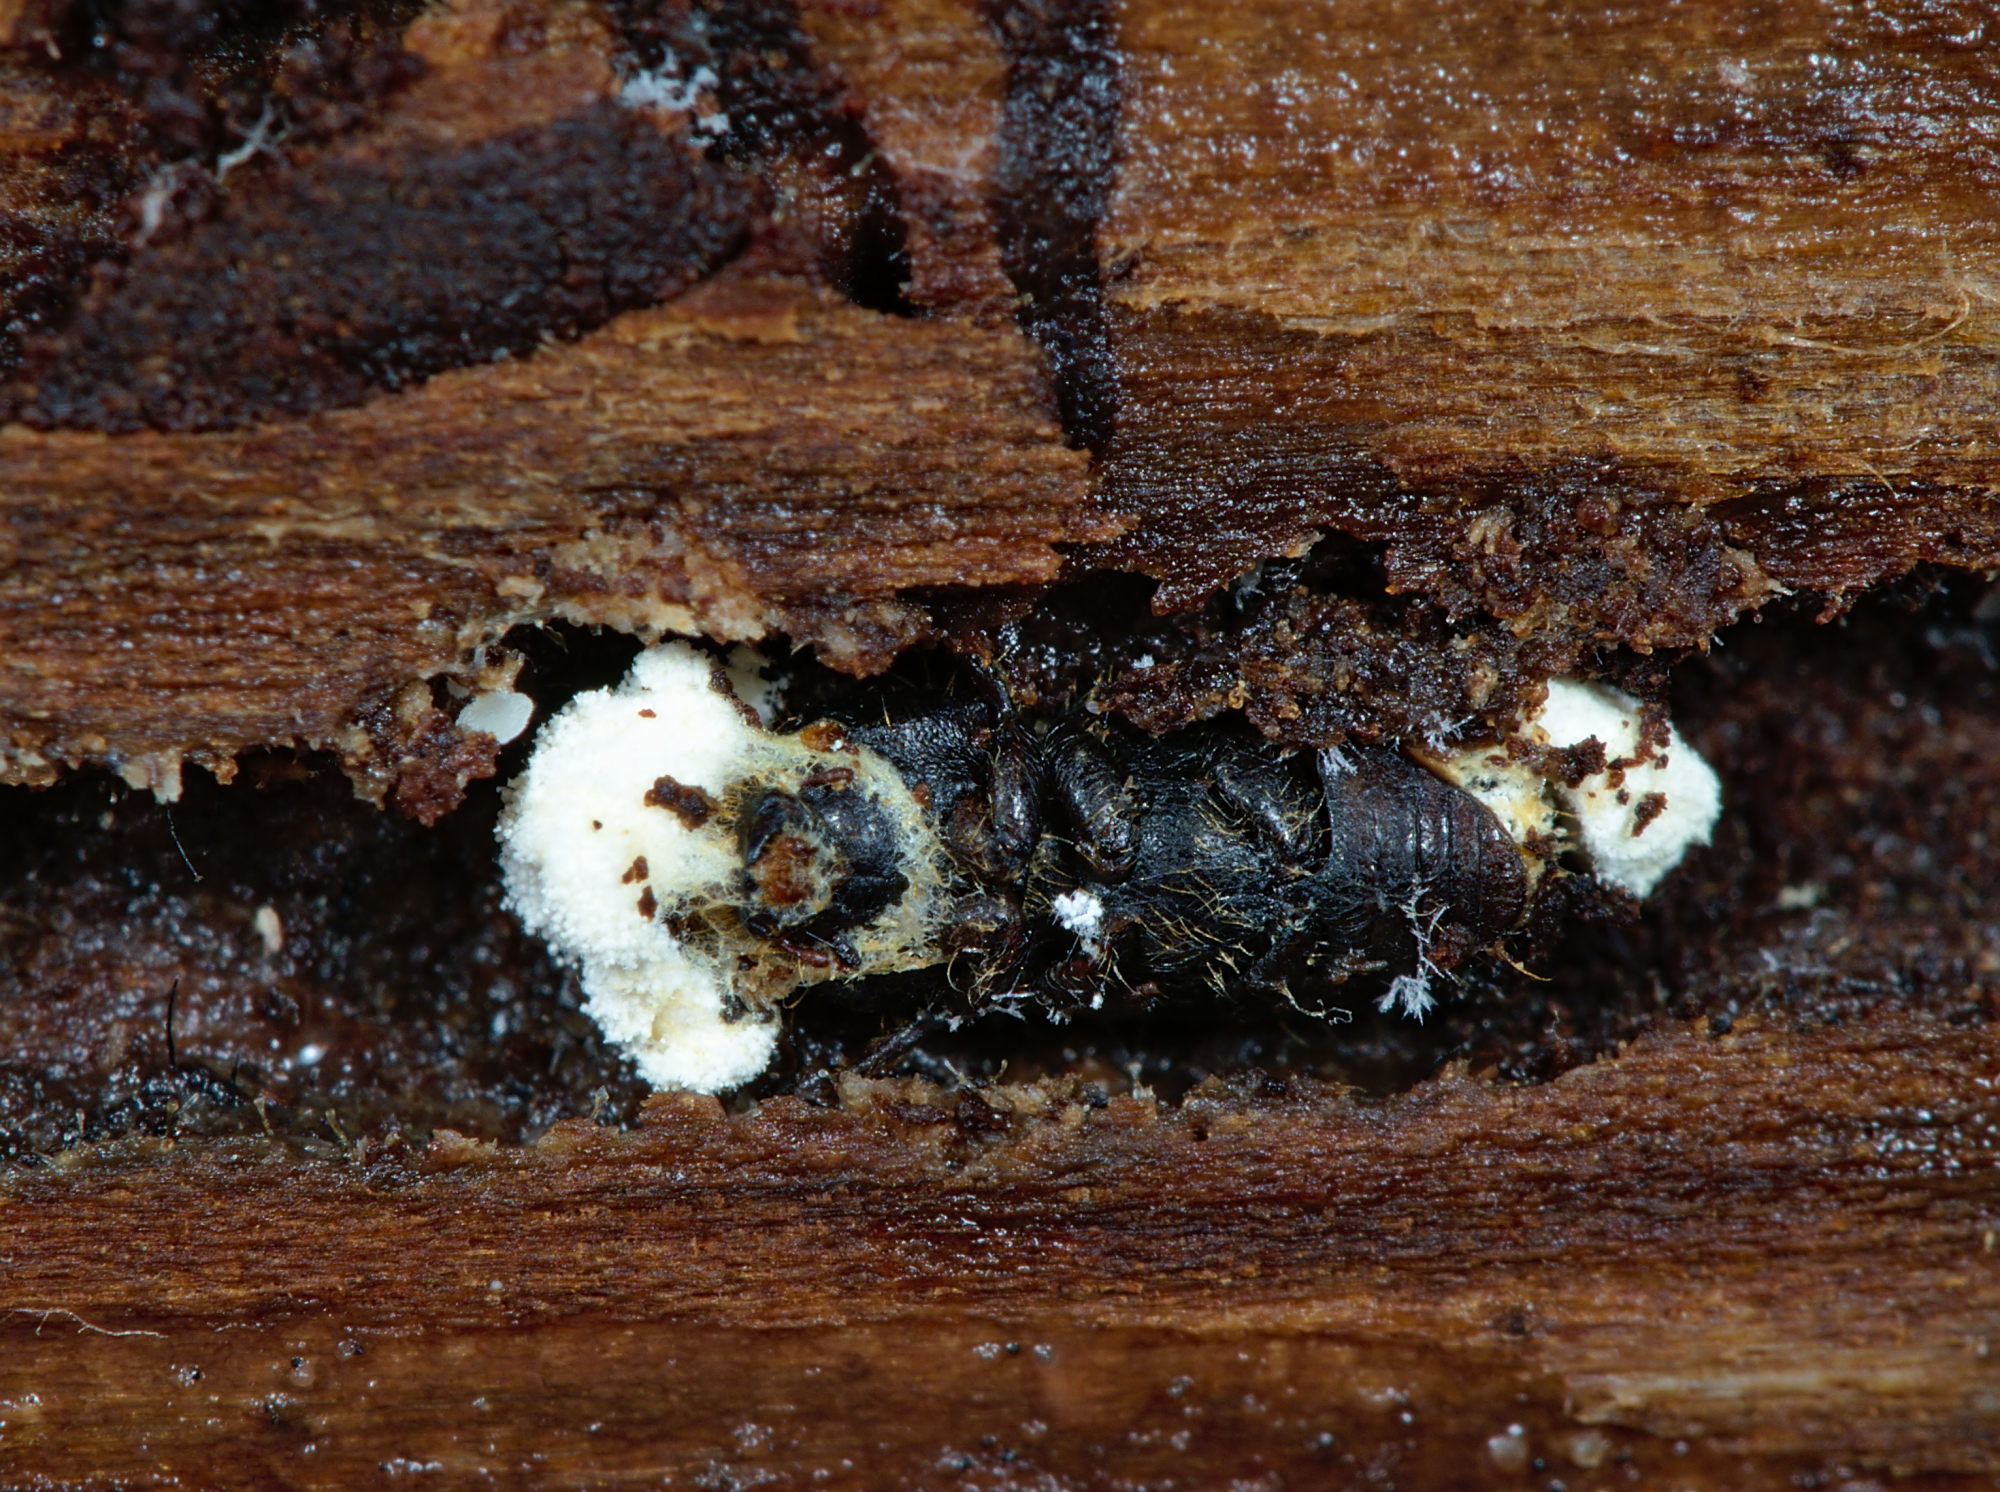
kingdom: Animalia
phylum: Arthropoda
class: Insecta
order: Coleoptera
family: Curculionidae
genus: Ips
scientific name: Ips typographus
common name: Eight-toothed spruce bark beetle
